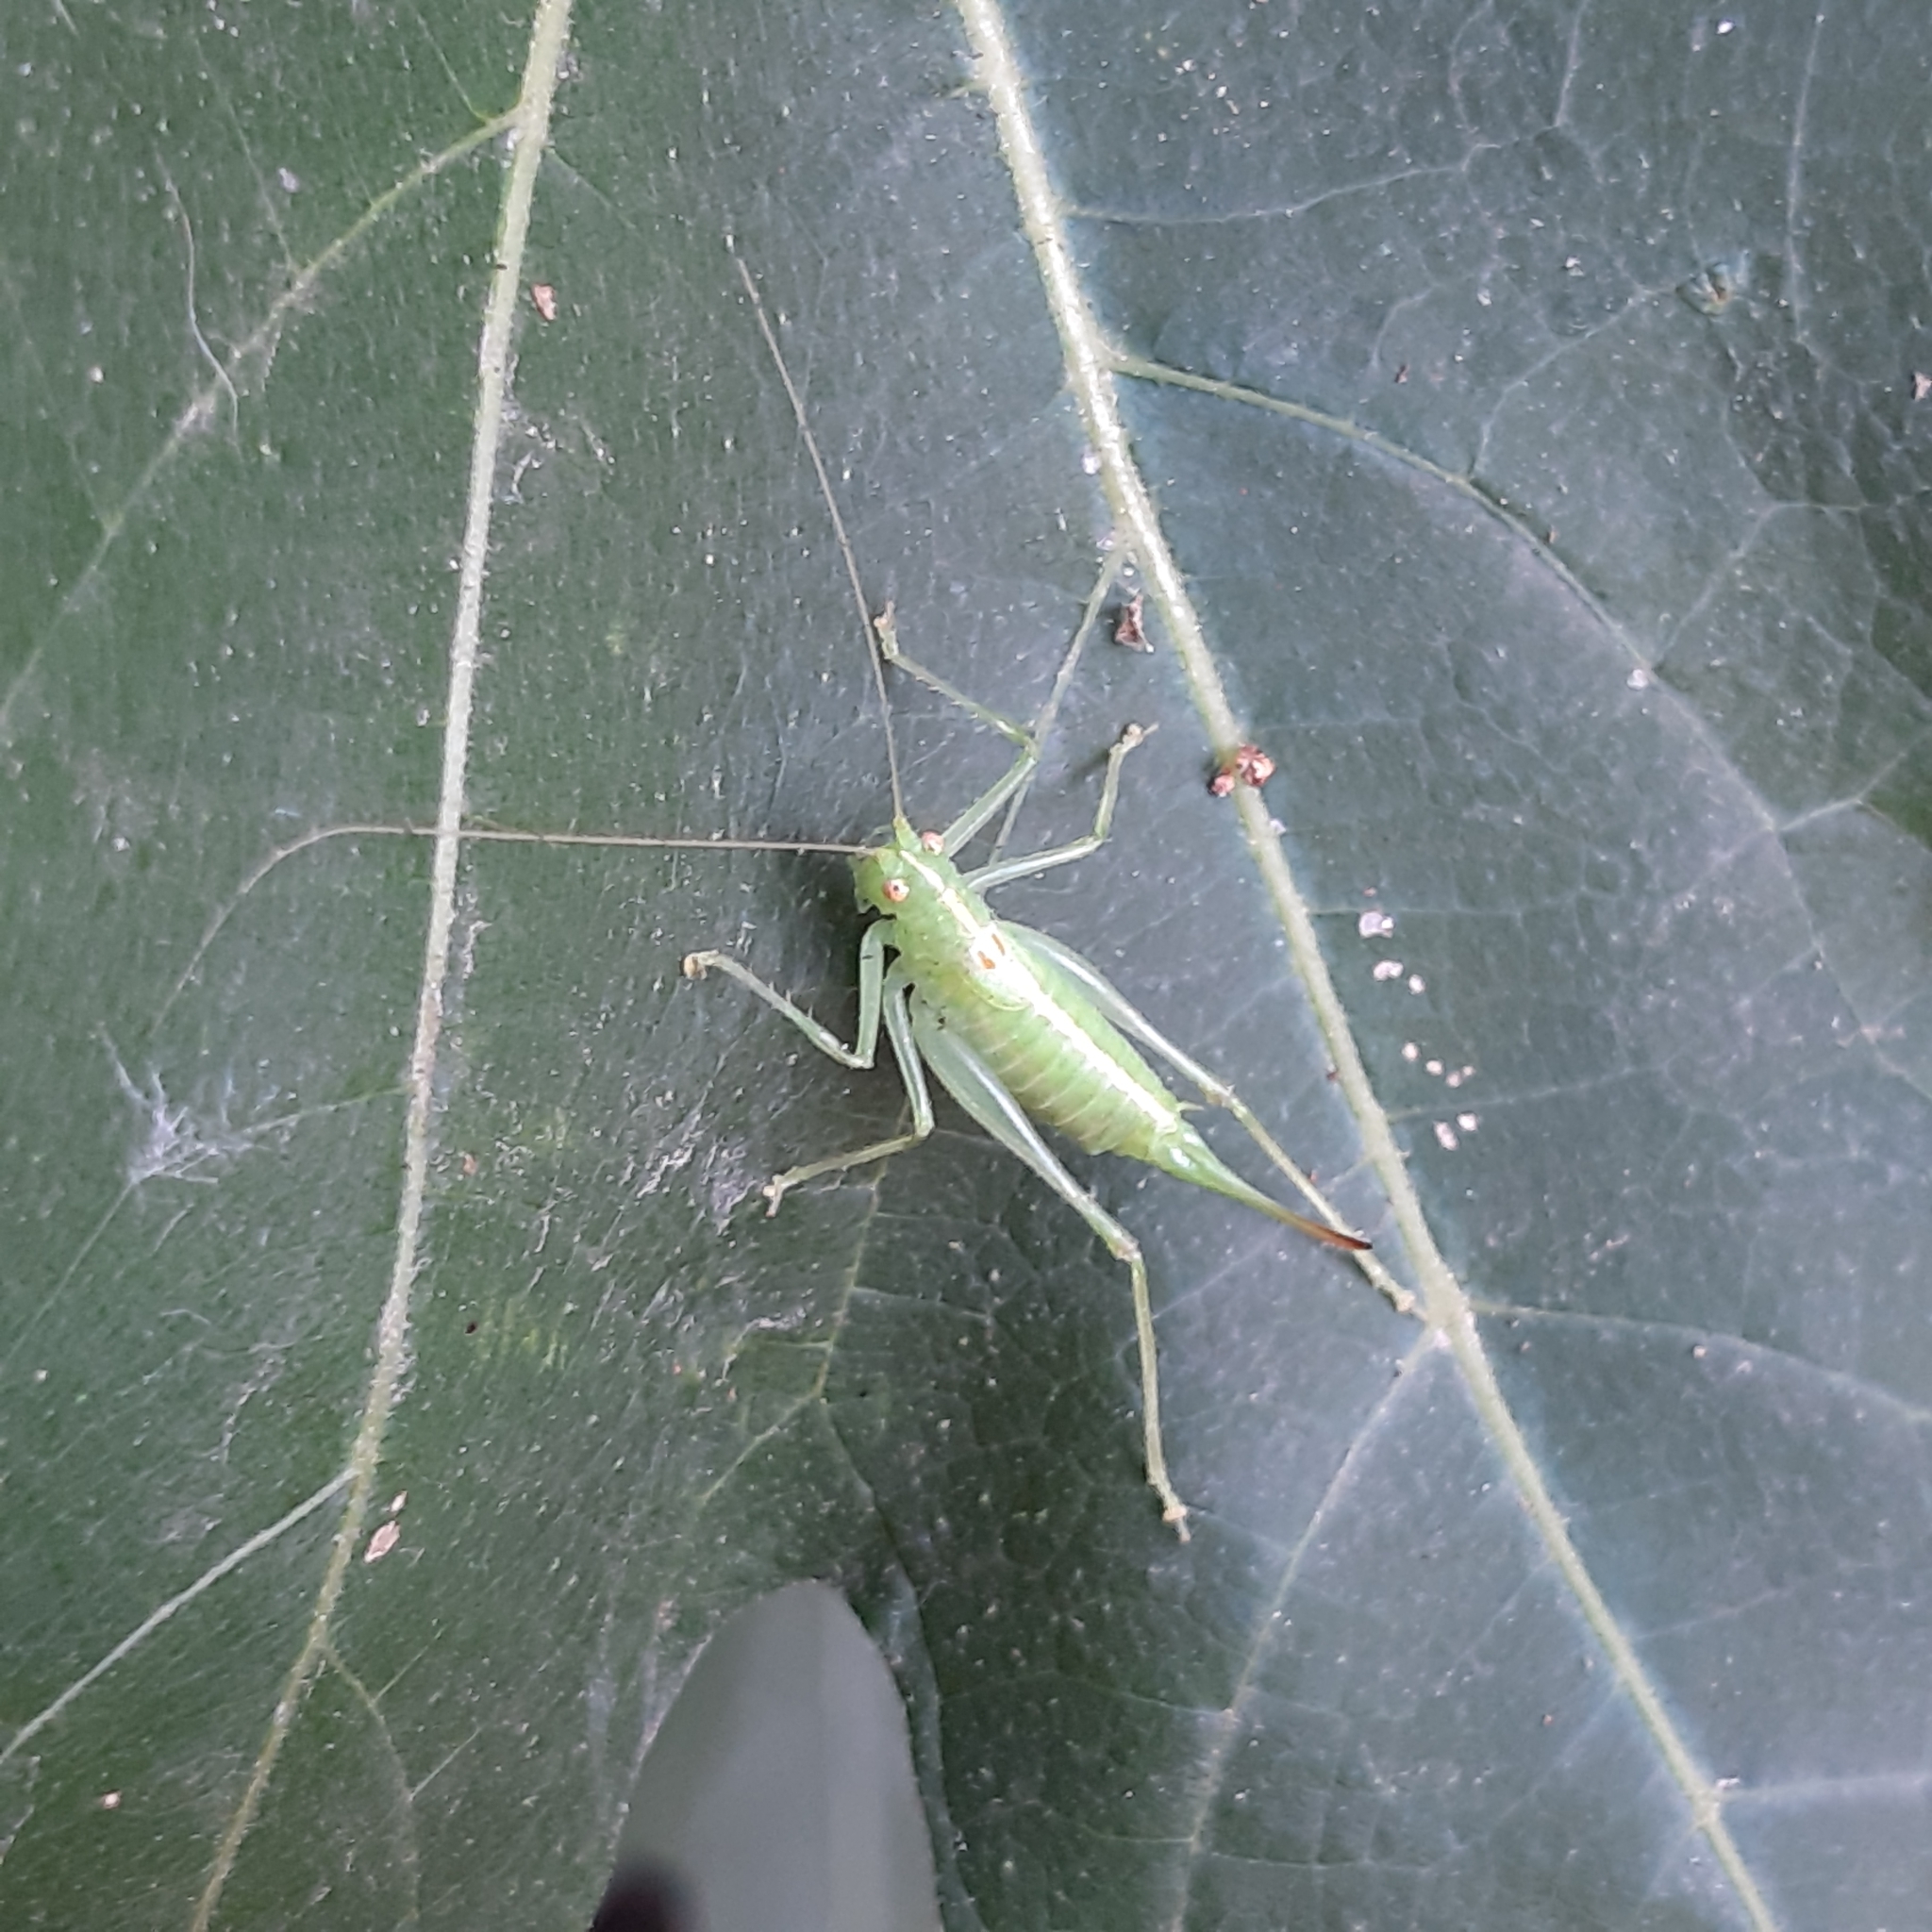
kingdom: Animalia
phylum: Arthropoda
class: Insecta
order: Orthoptera
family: Tettigoniidae
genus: Meconema
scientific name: Meconema meridionale
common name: Southern oak bush-cricket
